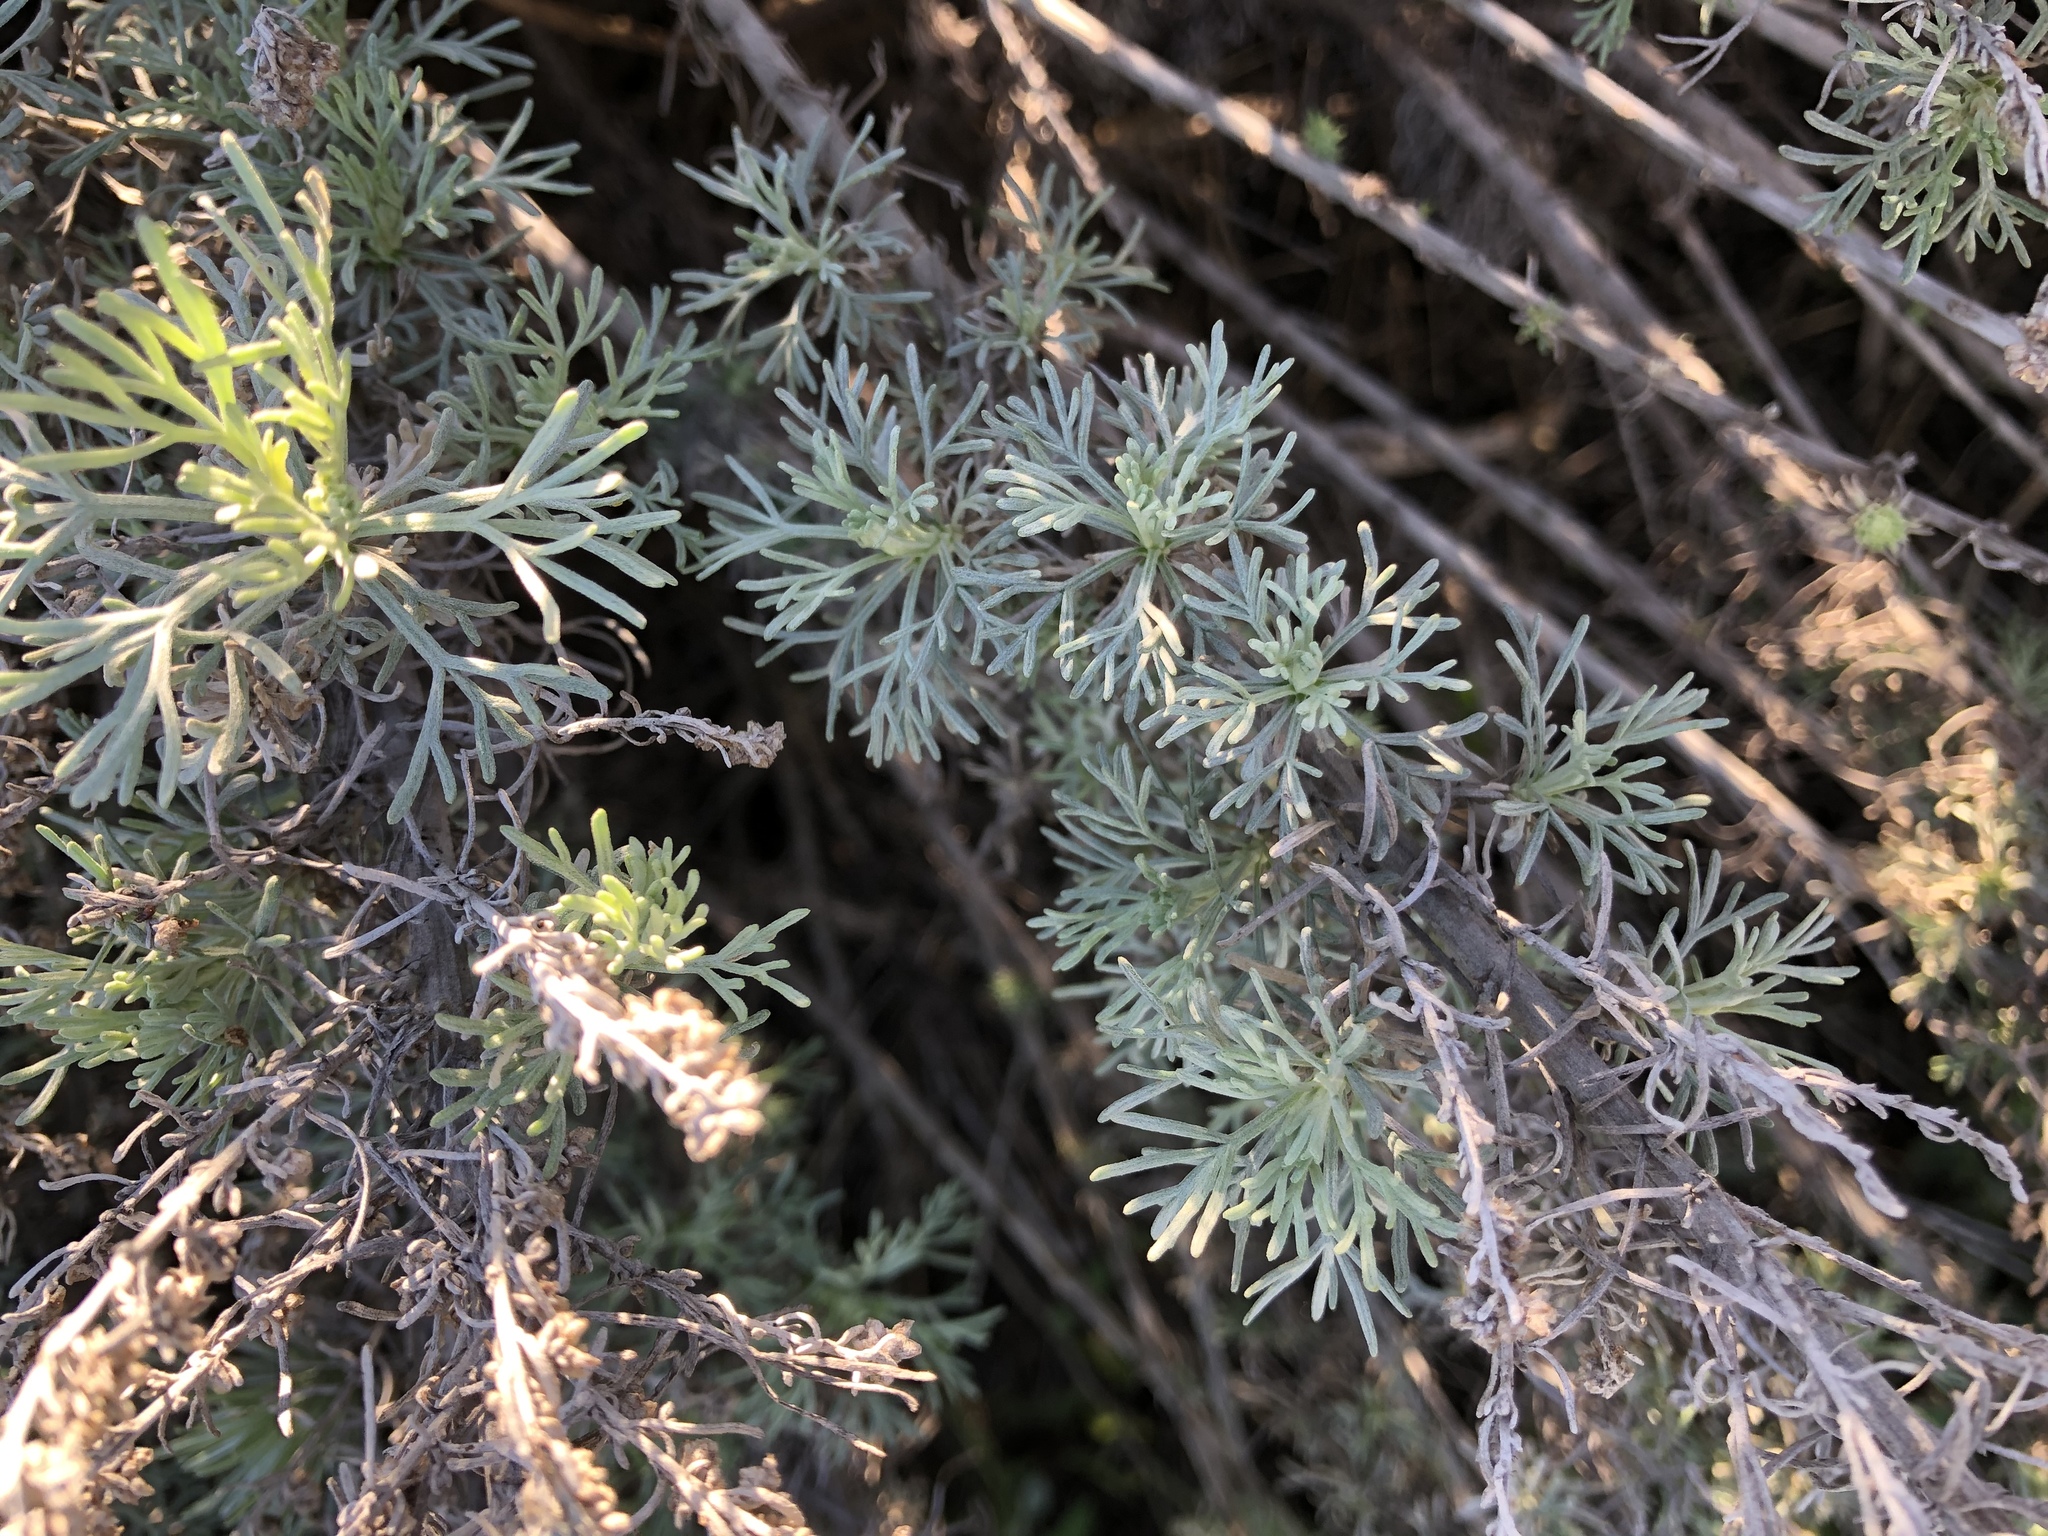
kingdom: Plantae
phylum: Tracheophyta
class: Magnoliopsida
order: Asterales
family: Asteraceae
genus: Artemisia
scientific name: Artemisia californica
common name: California sagebrush
